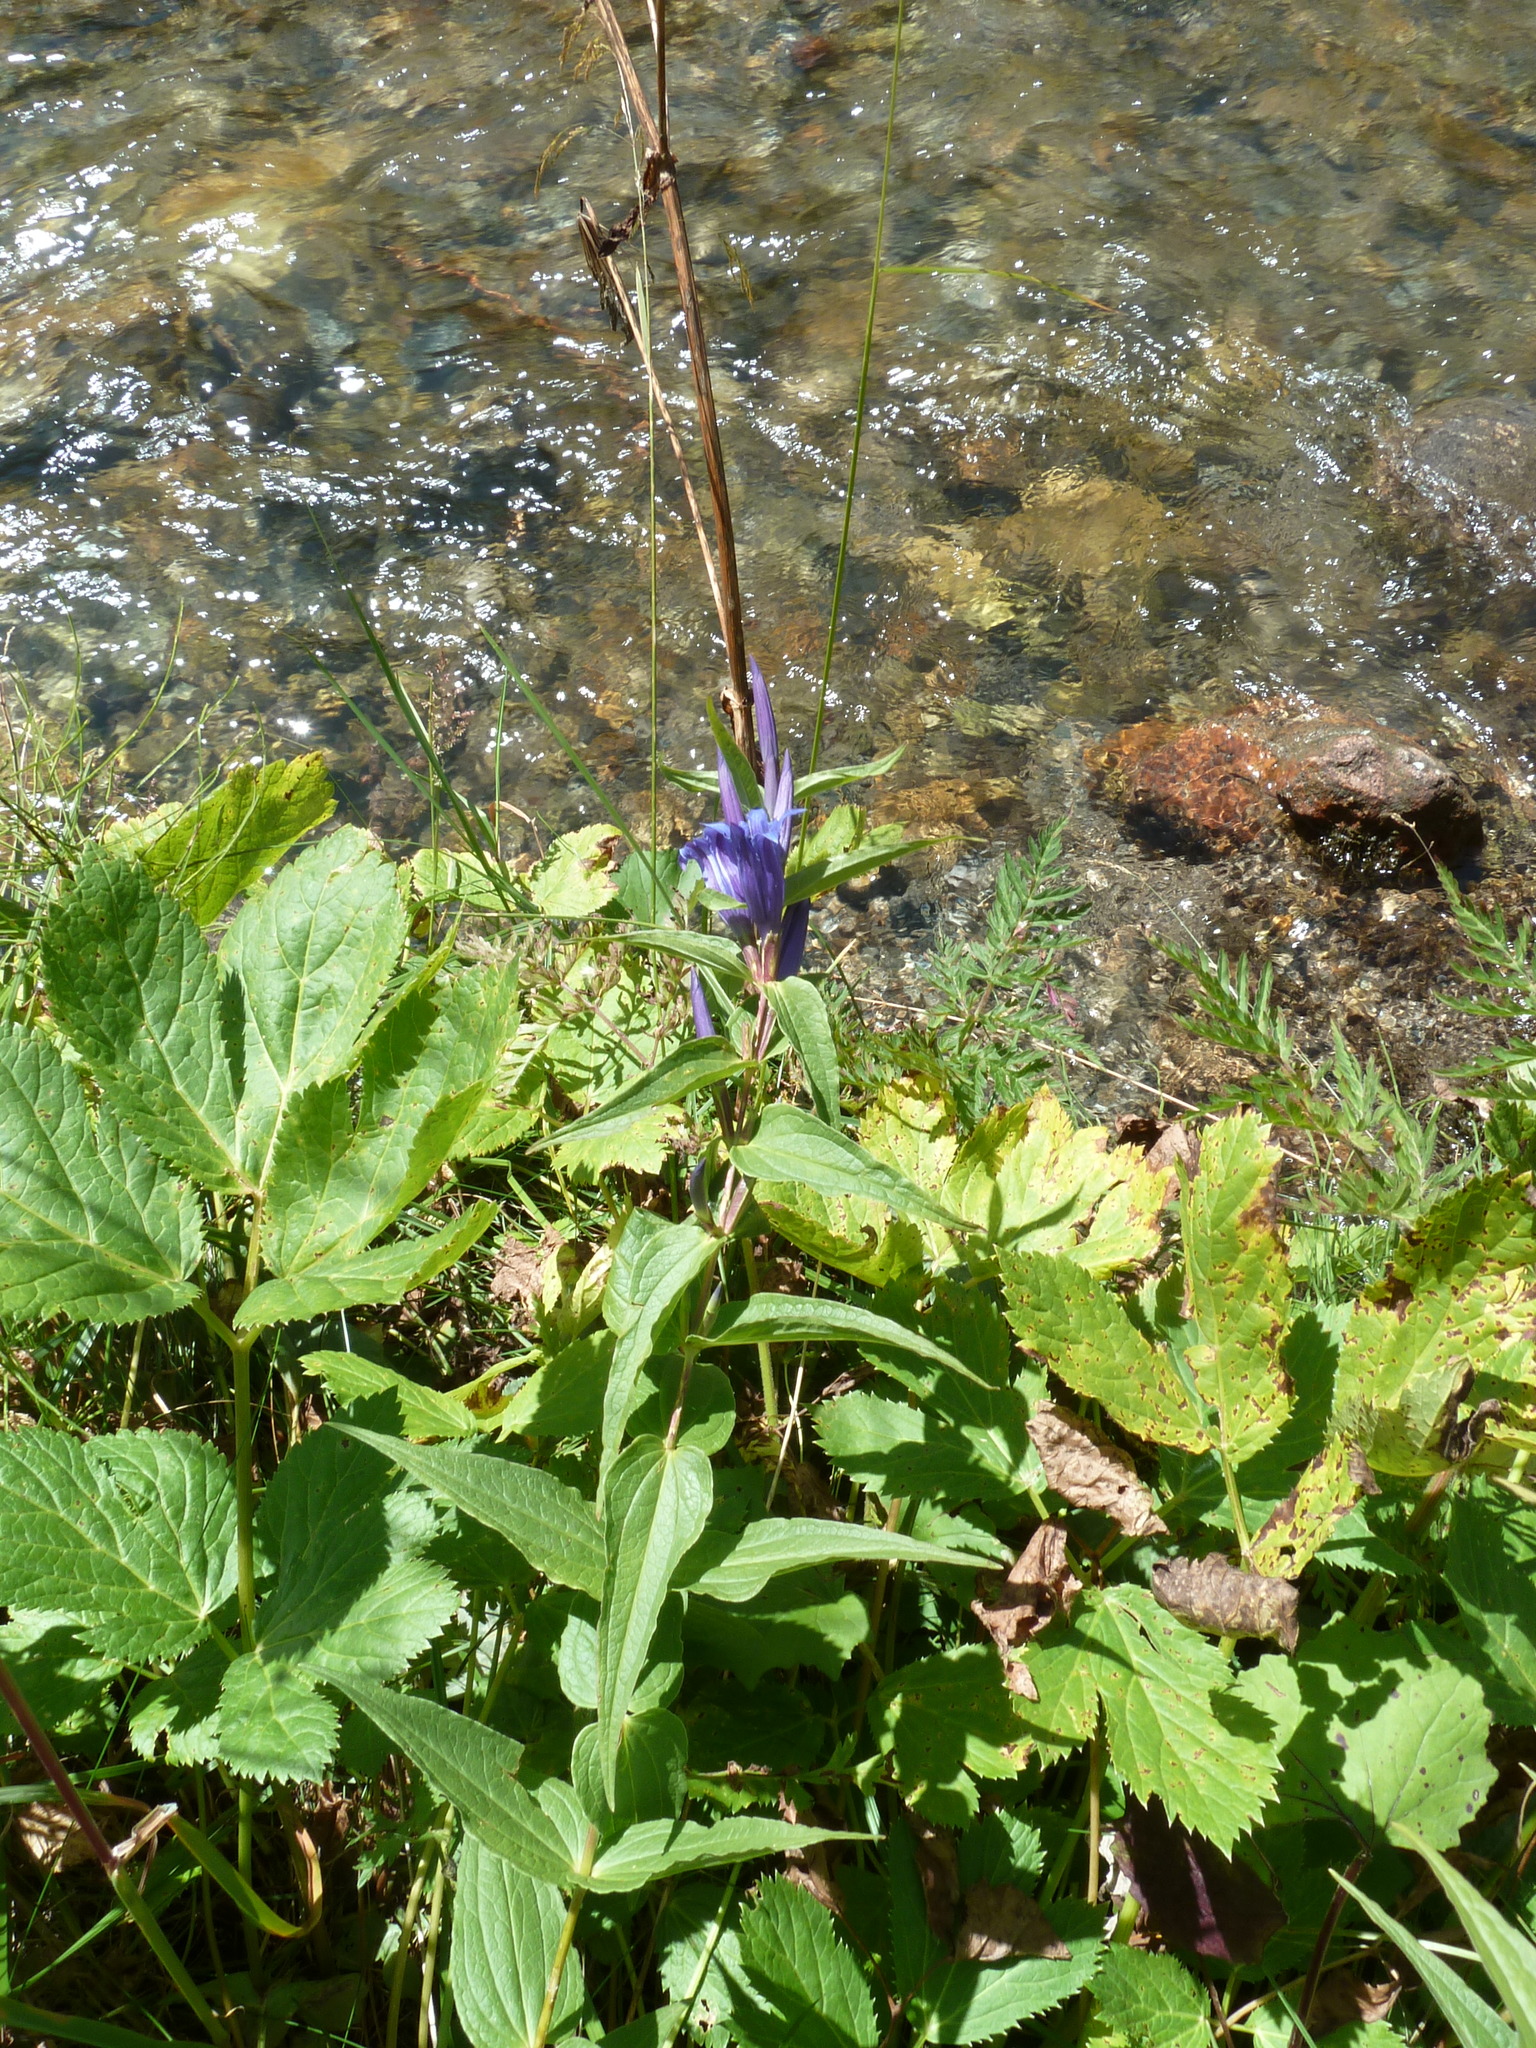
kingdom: Plantae
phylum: Tracheophyta
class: Magnoliopsida
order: Gentianales
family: Gentianaceae
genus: Gentiana
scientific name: Gentiana asclepiadea
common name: Willow gentian
